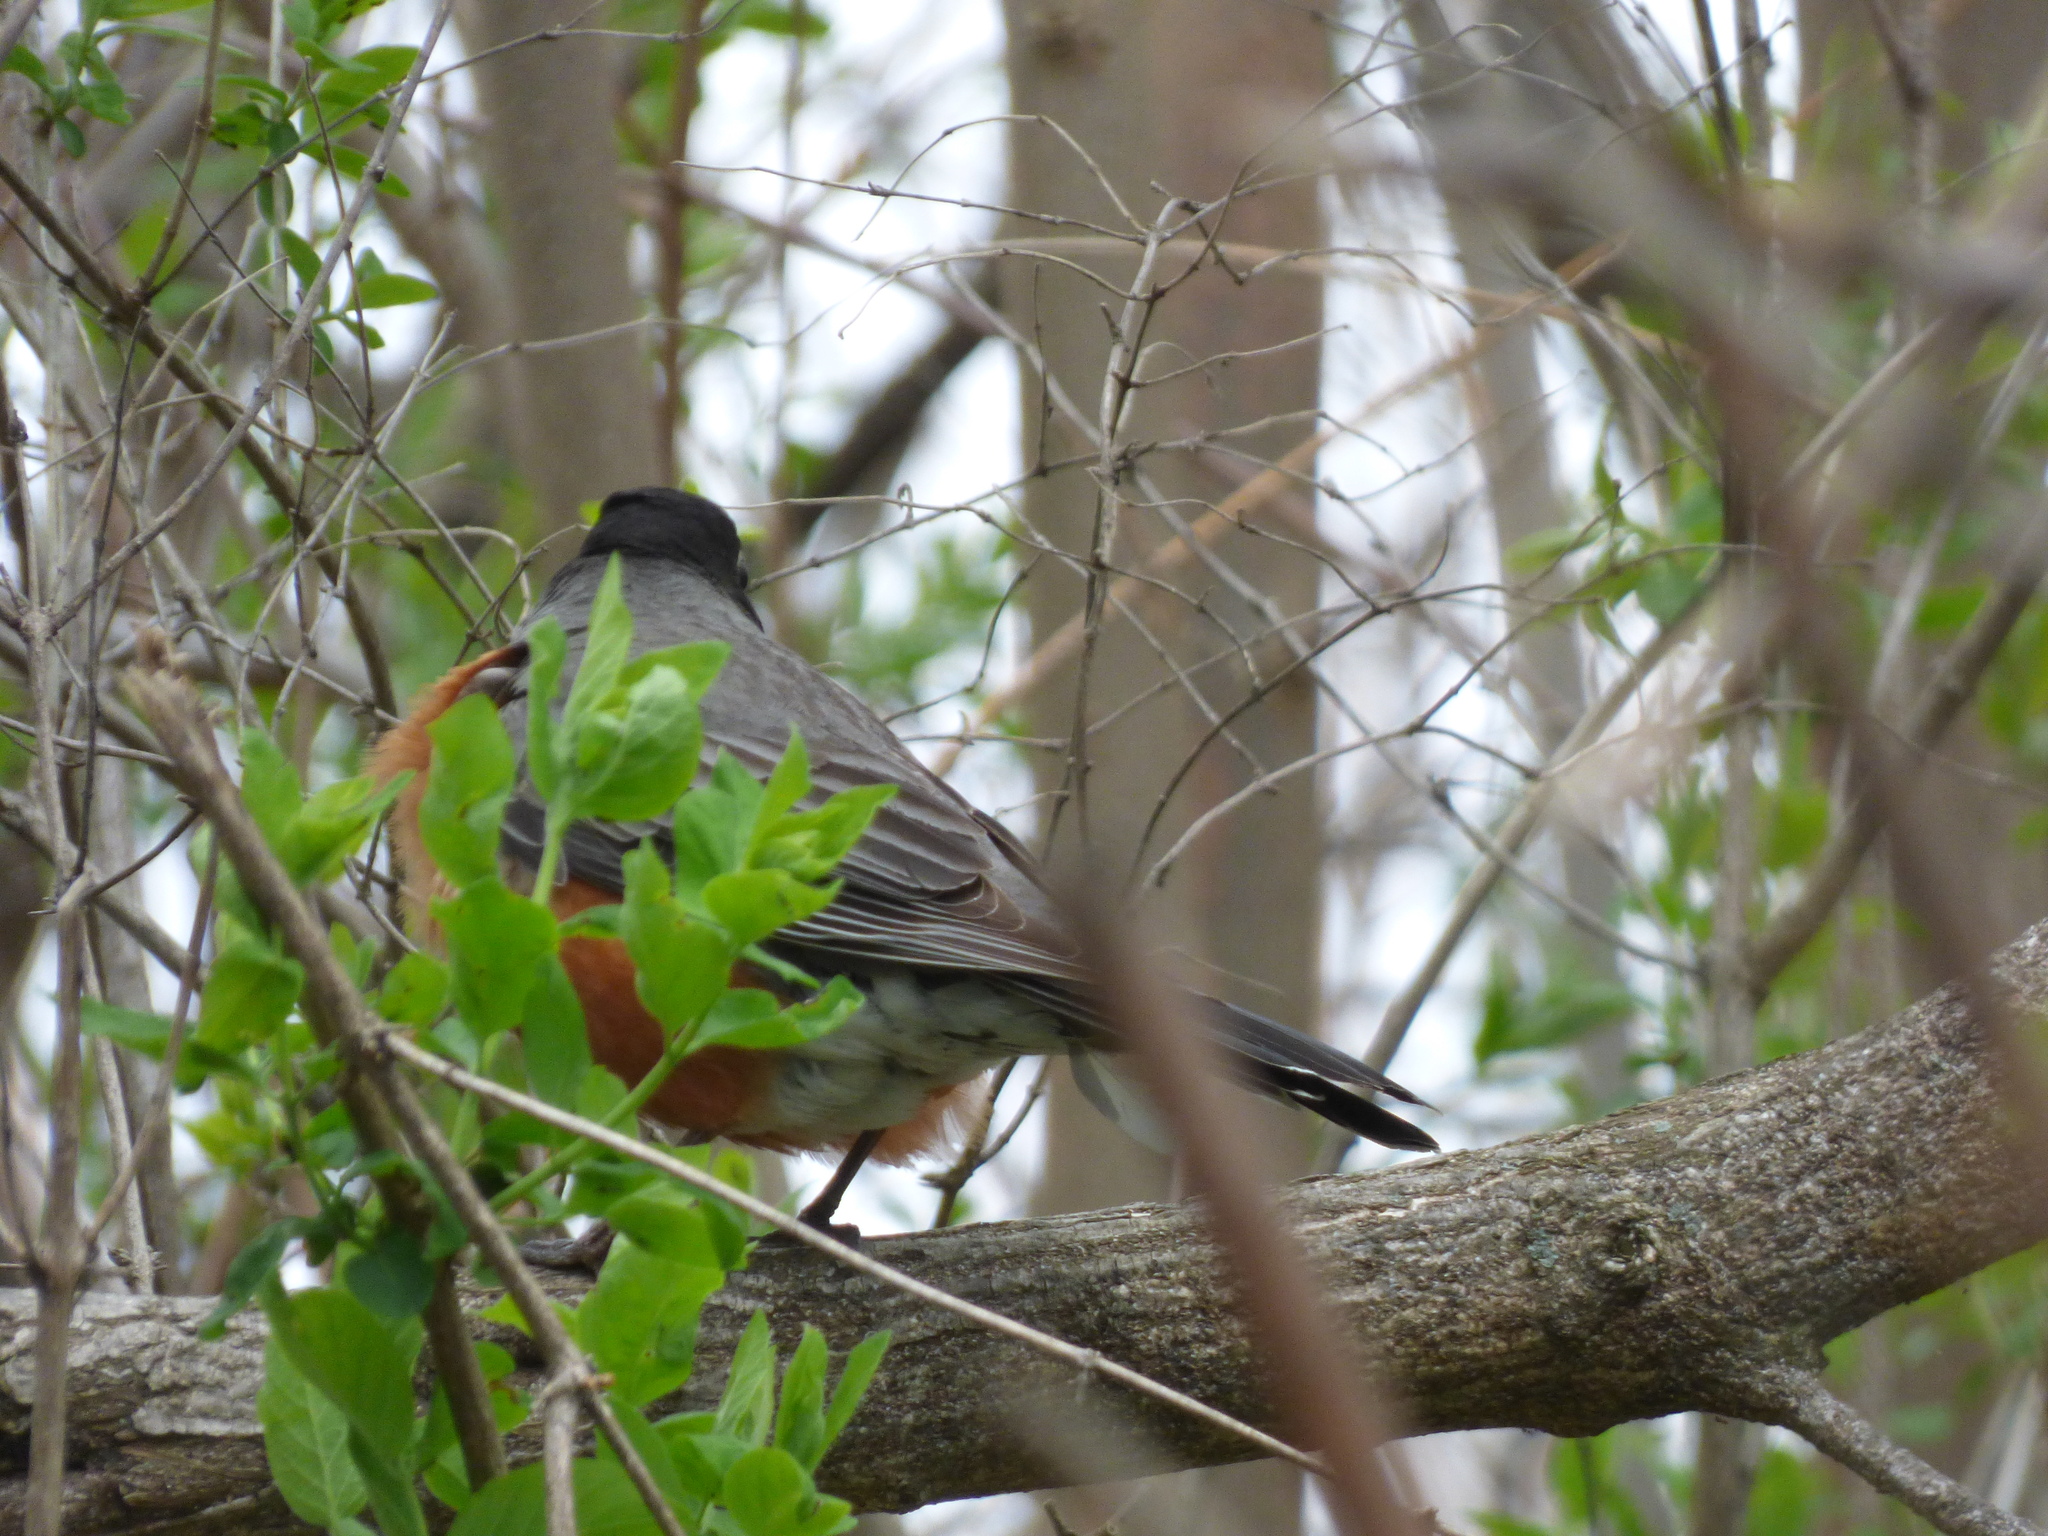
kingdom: Animalia
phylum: Chordata
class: Aves
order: Passeriformes
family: Turdidae
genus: Turdus
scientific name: Turdus migratorius
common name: American robin
